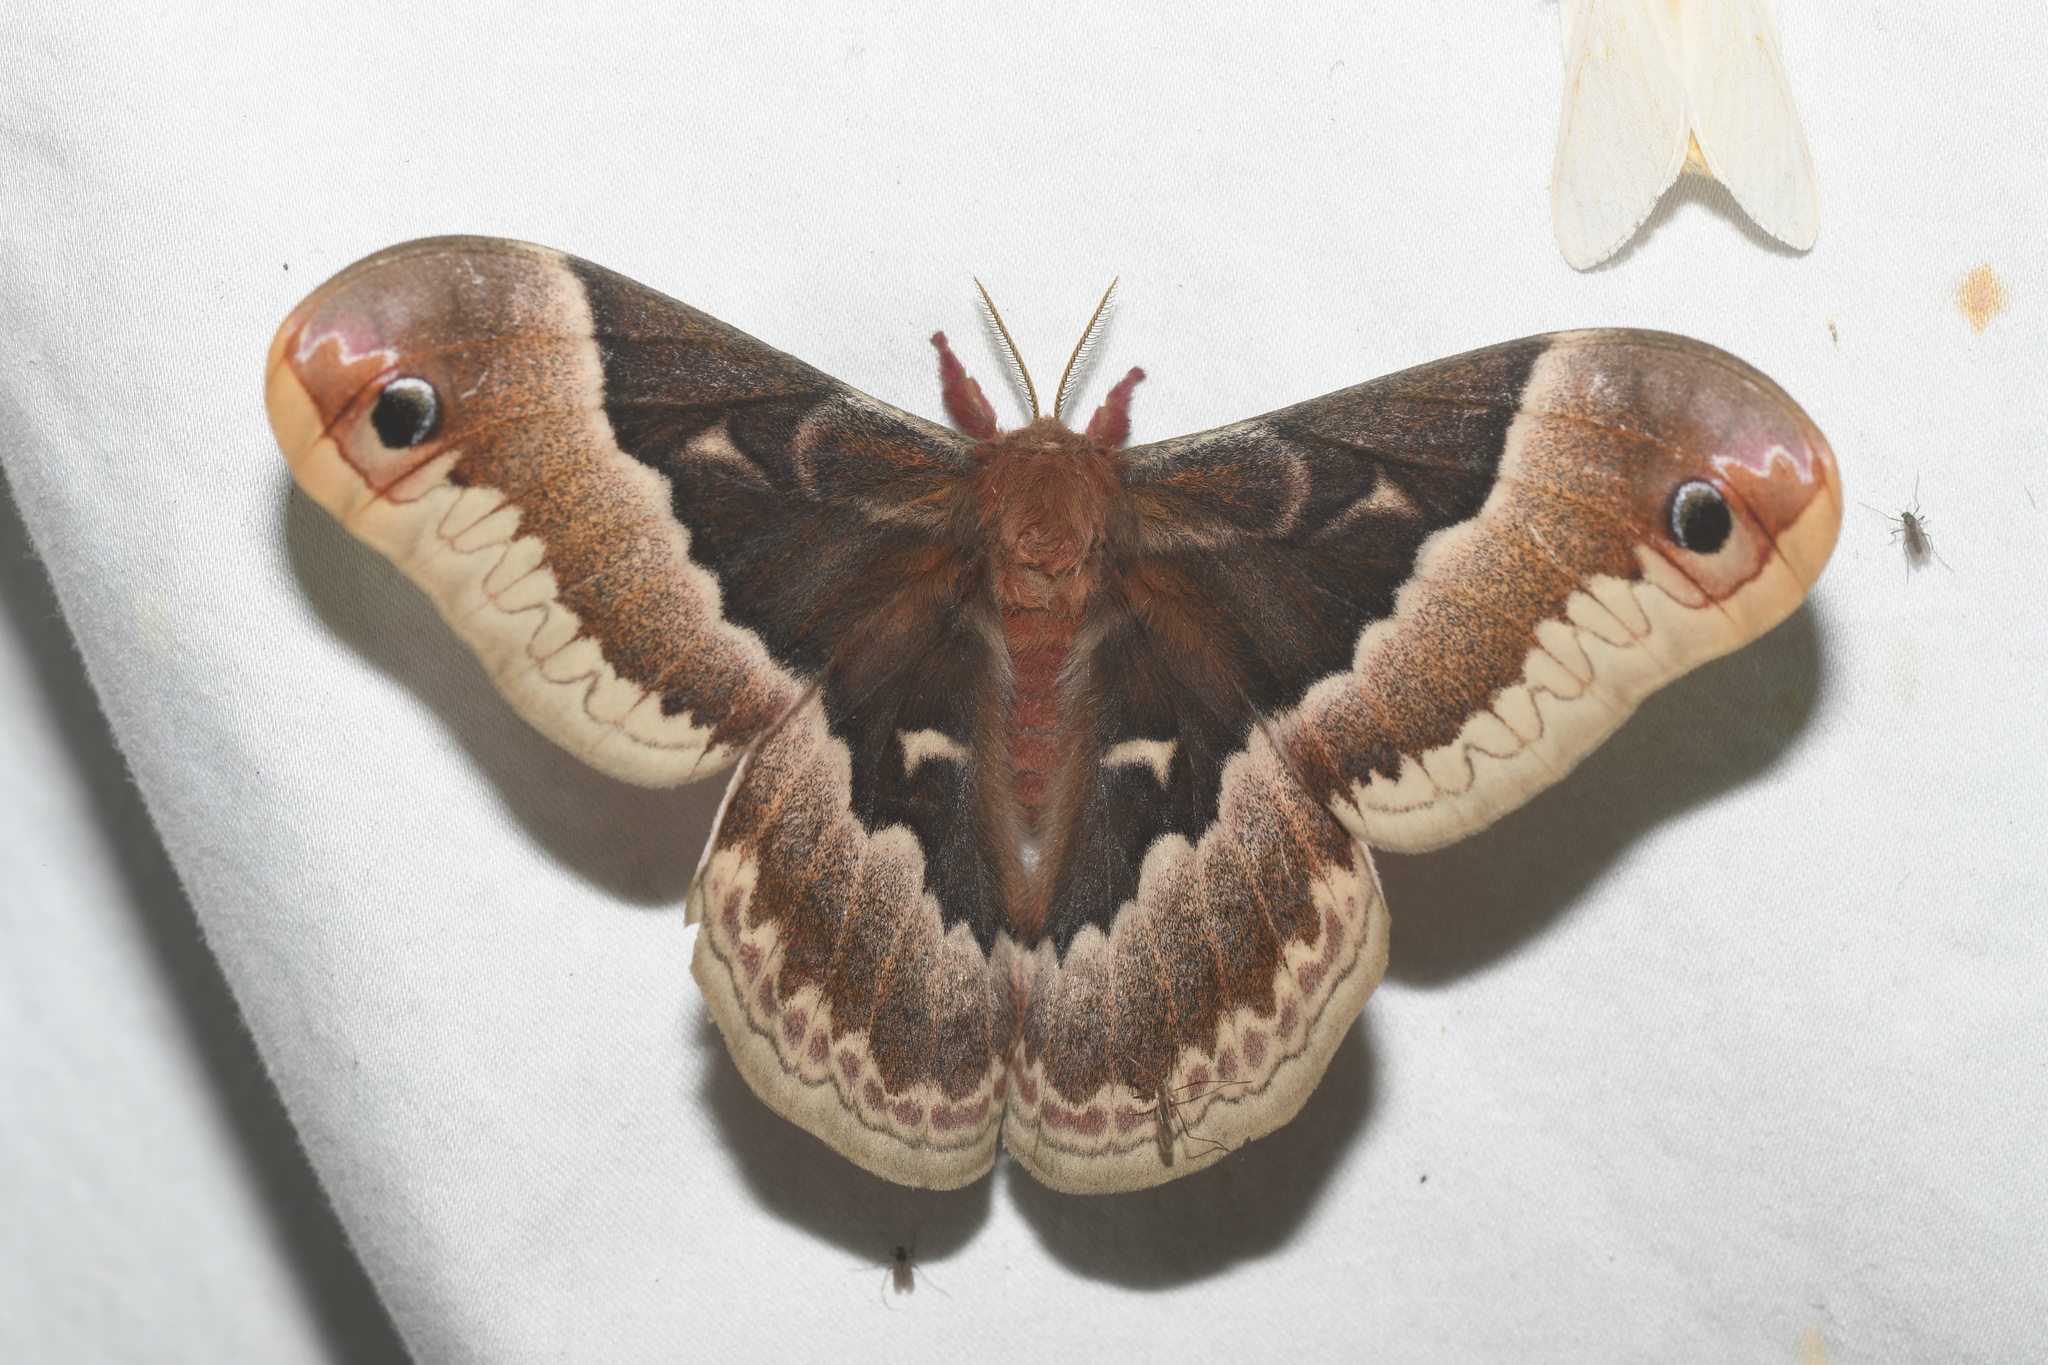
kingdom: Animalia
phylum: Arthropoda
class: Insecta
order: Lepidoptera
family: Saturniidae
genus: Callosamia
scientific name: Callosamia promethea
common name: Promethea silkmoth
